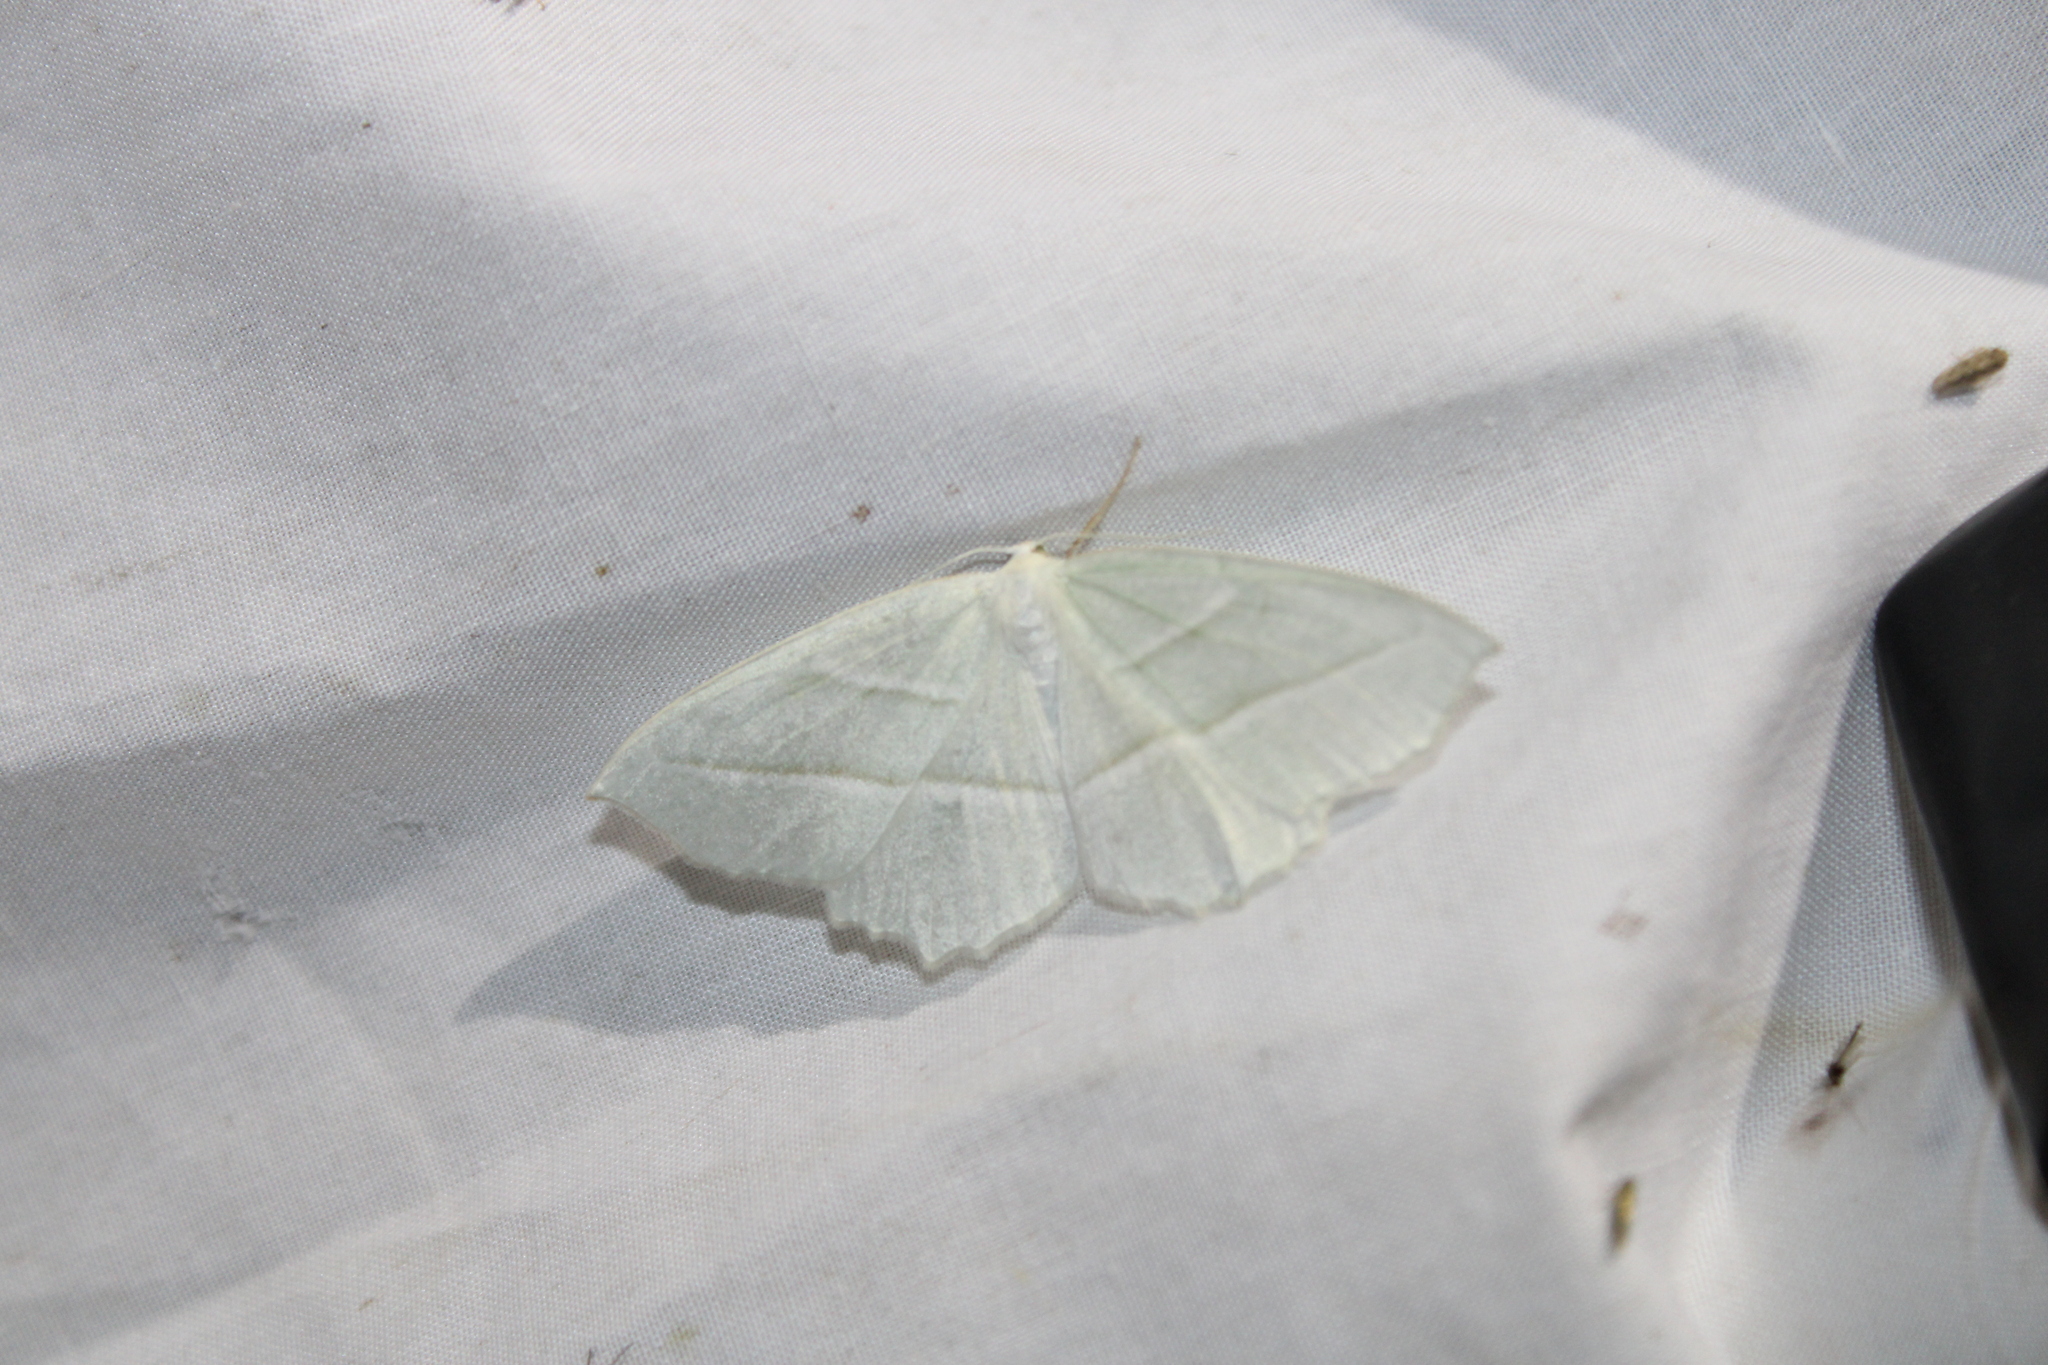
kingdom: Animalia
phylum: Arthropoda
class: Insecta
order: Lepidoptera
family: Geometridae
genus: Campaea
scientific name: Campaea perlata
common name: Fringed looper
